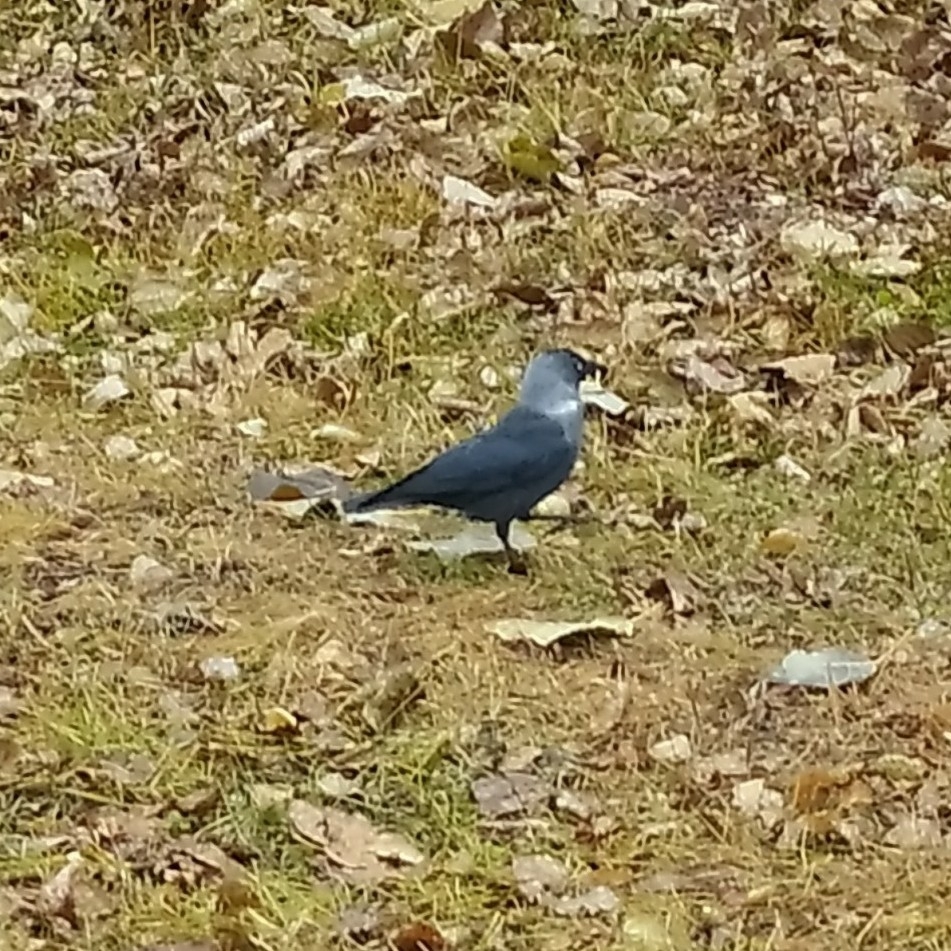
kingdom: Animalia
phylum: Chordata
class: Aves
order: Passeriformes
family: Corvidae
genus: Coloeus
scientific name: Coloeus monedula
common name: Western jackdaw
